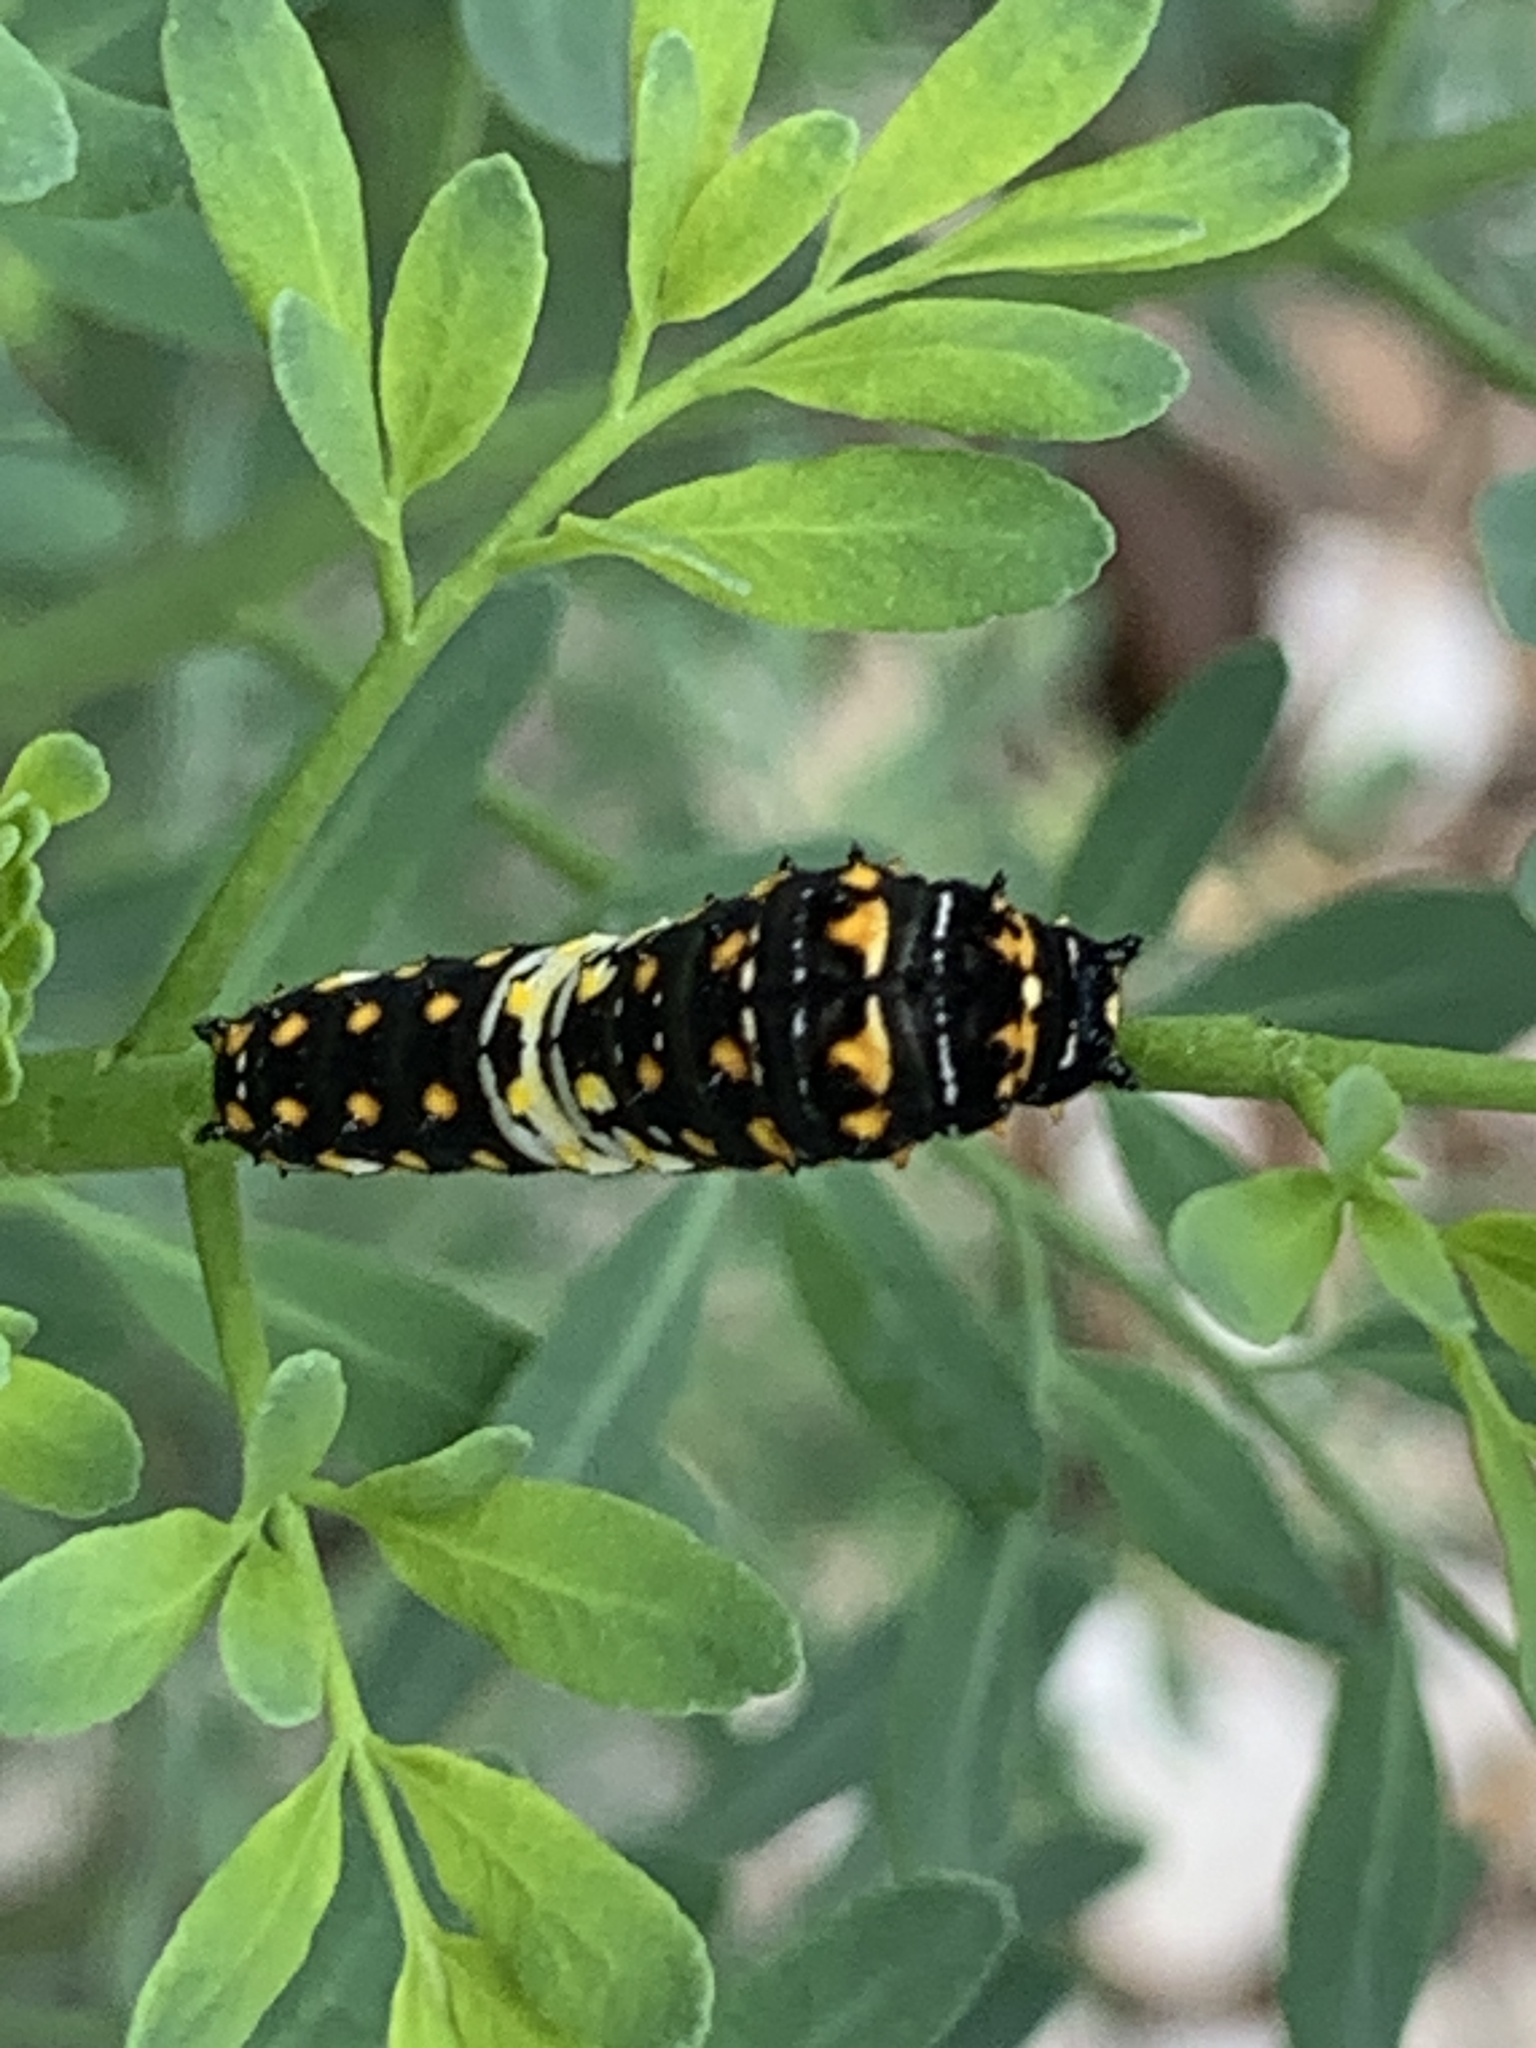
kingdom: Animalia
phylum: Arthropoda
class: Insecta
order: Lepidoptera
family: Papilionidae
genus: Papilio
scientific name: Papilio polyxenes
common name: Black swallowtail
